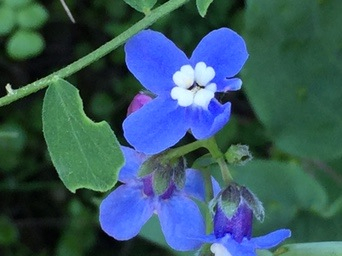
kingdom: Plantae
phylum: Tracheophyta
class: Magnoliopsida
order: Boraginales
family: Boraginaceae
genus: Adelinia
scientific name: Adelinia grande
